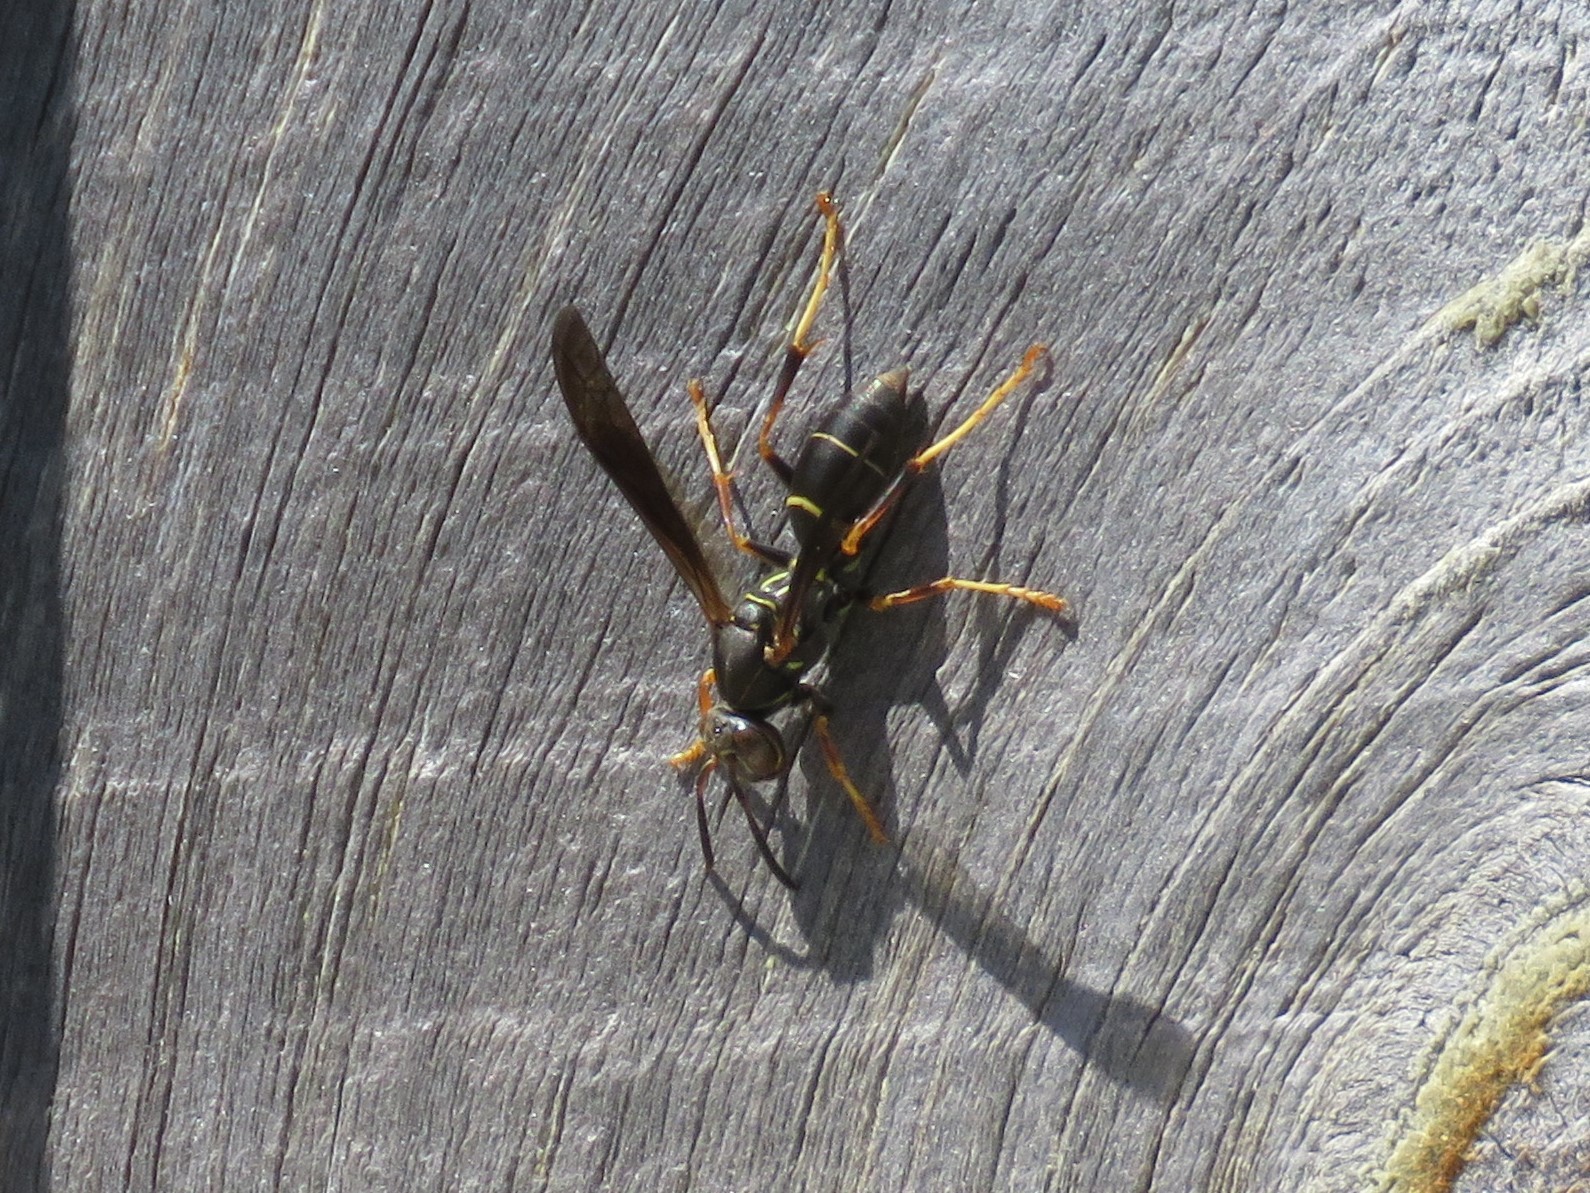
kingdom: Animalia
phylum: Arthropoda
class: Insecta
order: Hymenoptera
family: Eumenidae
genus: Polistes
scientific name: Polistes fuscatus
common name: Dark paper wasp
